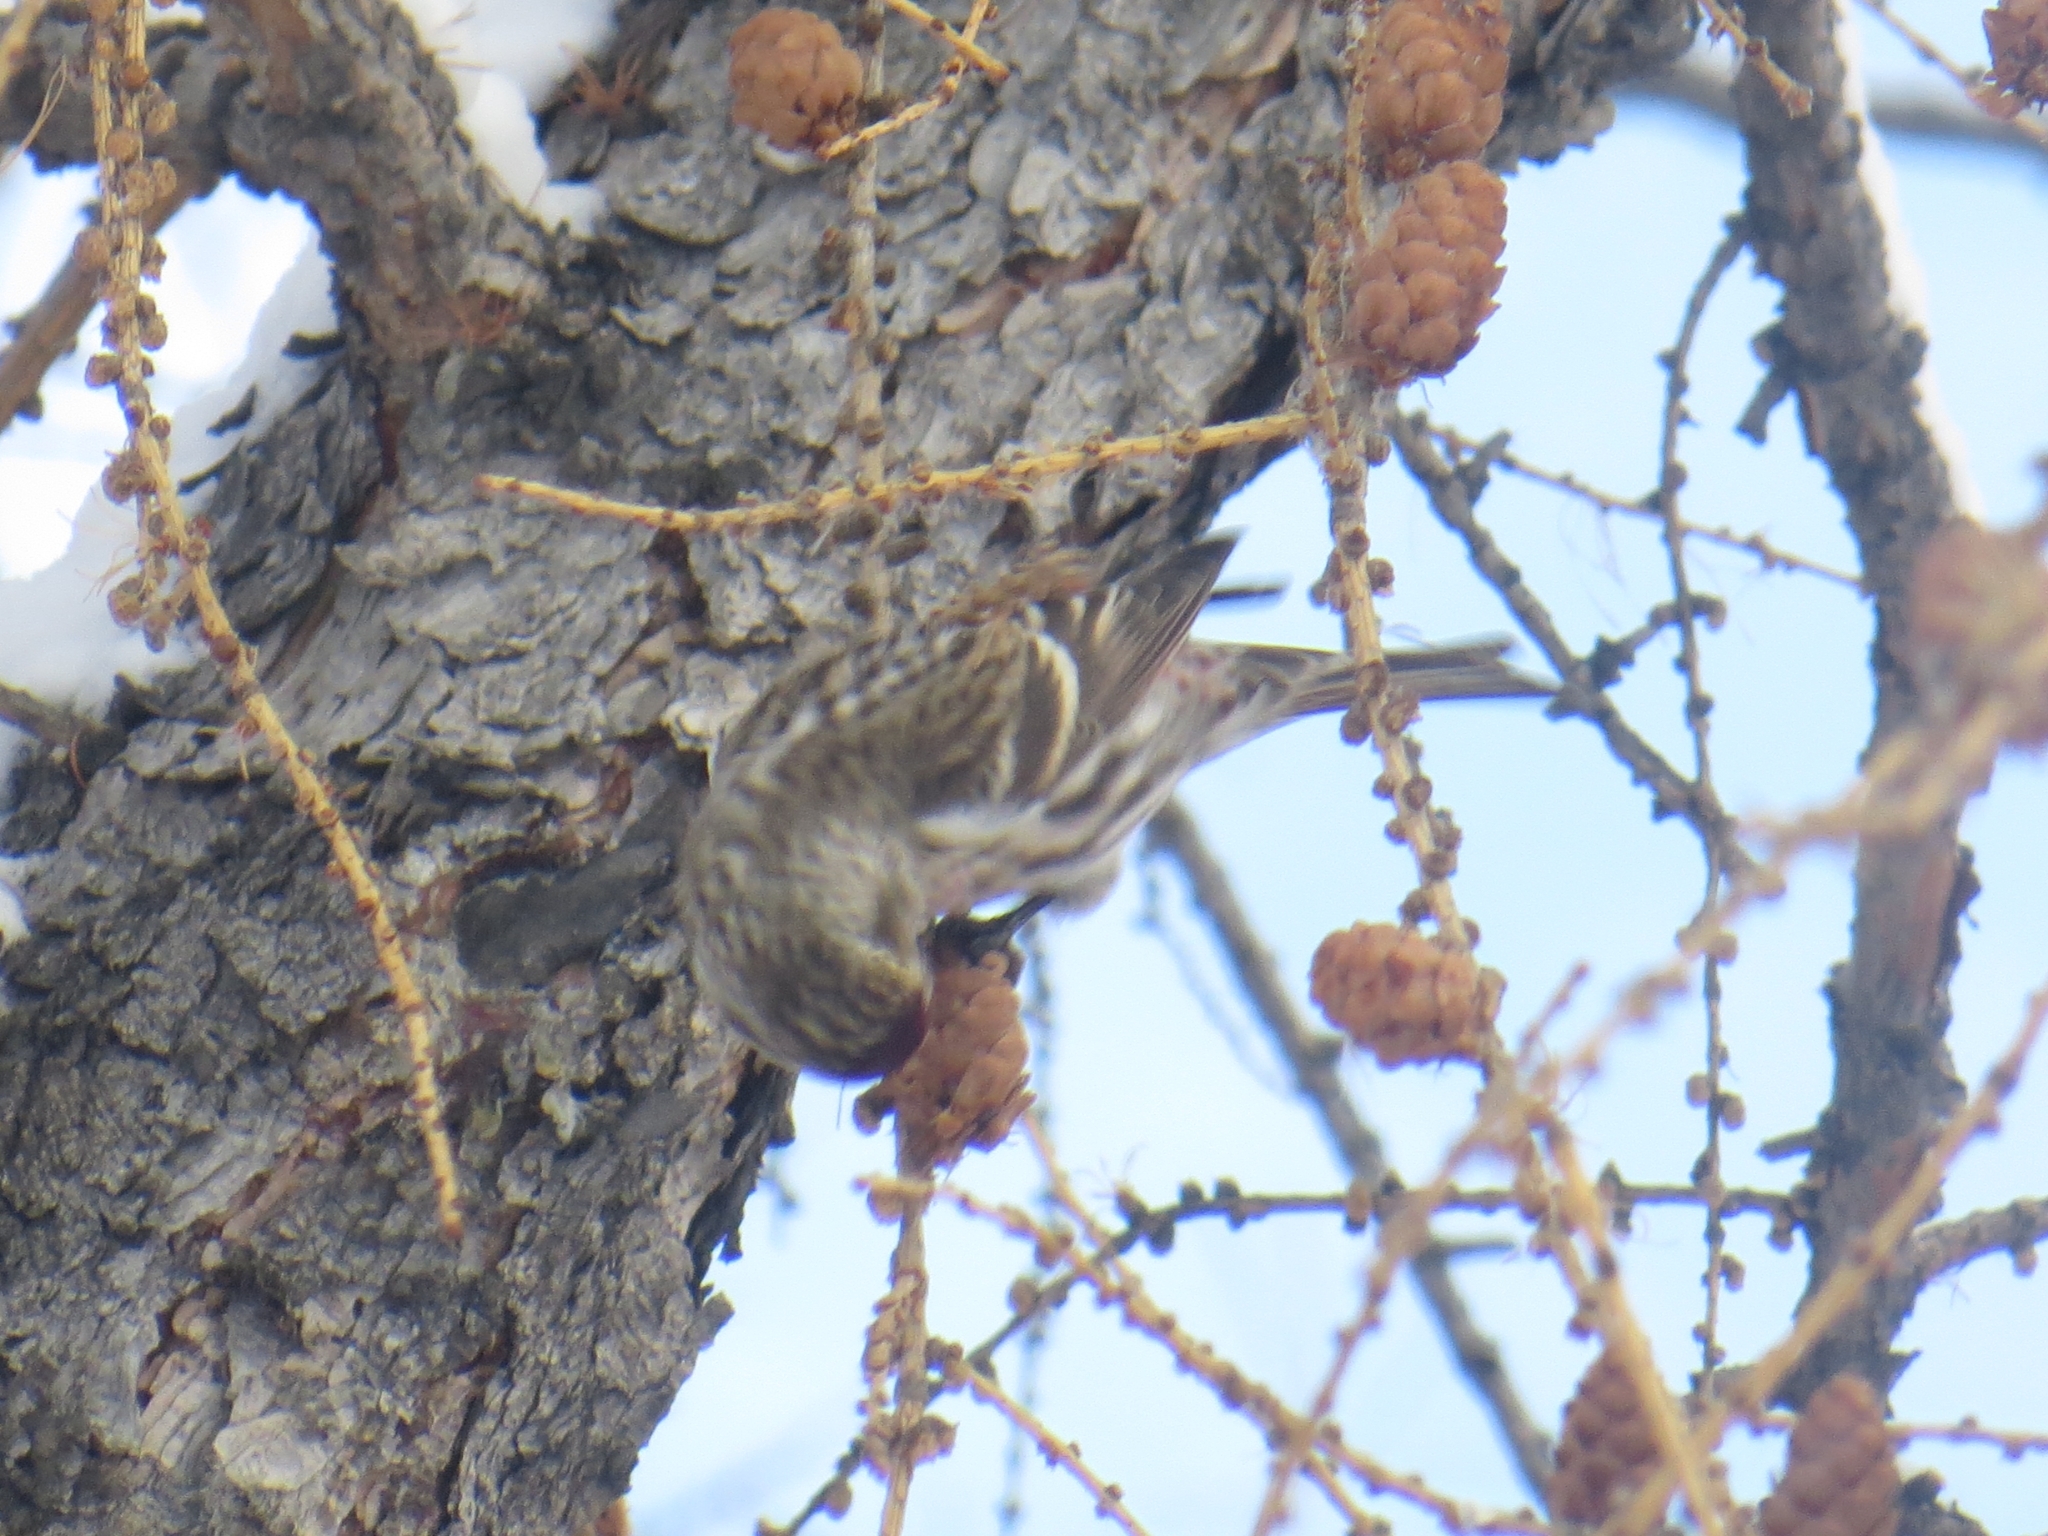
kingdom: Animalia
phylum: Chordata
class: Aves
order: Passeriformes
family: Fringillidae
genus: Acanthis
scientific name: Acanthis flammea
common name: Common redpoll
